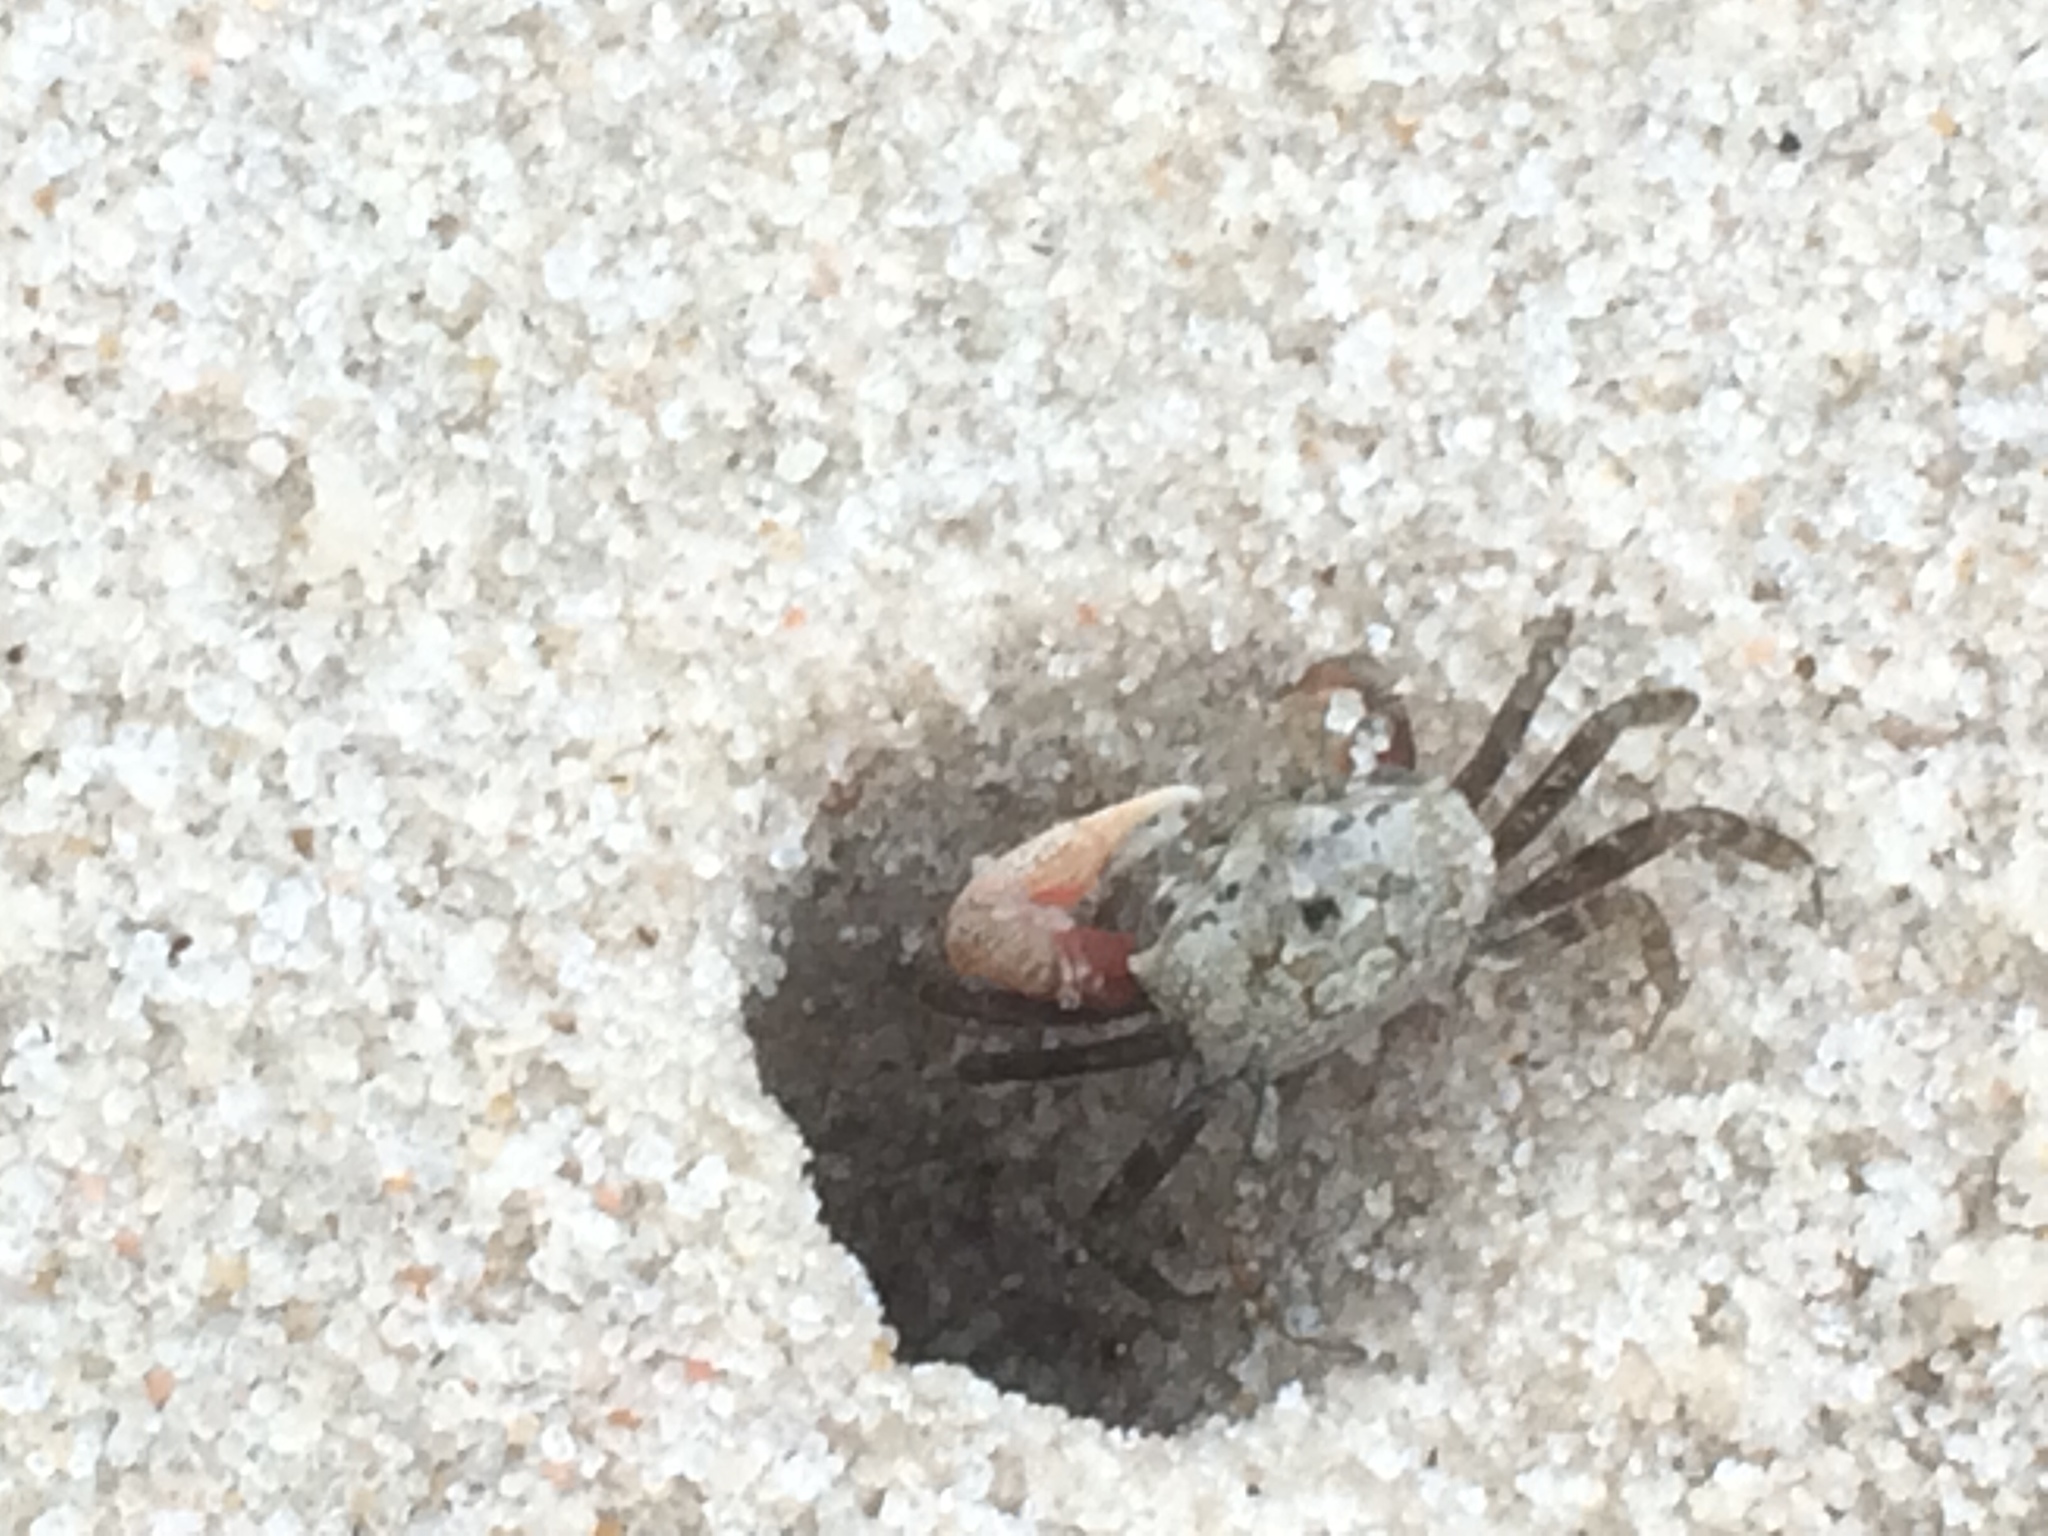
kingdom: Animalia
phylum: Arthropoda
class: Malacostraca
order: Decapoda
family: Ocypodidae
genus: Leptuca
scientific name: Leptuca pugilator
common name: Atlantic sand fiddler crab
